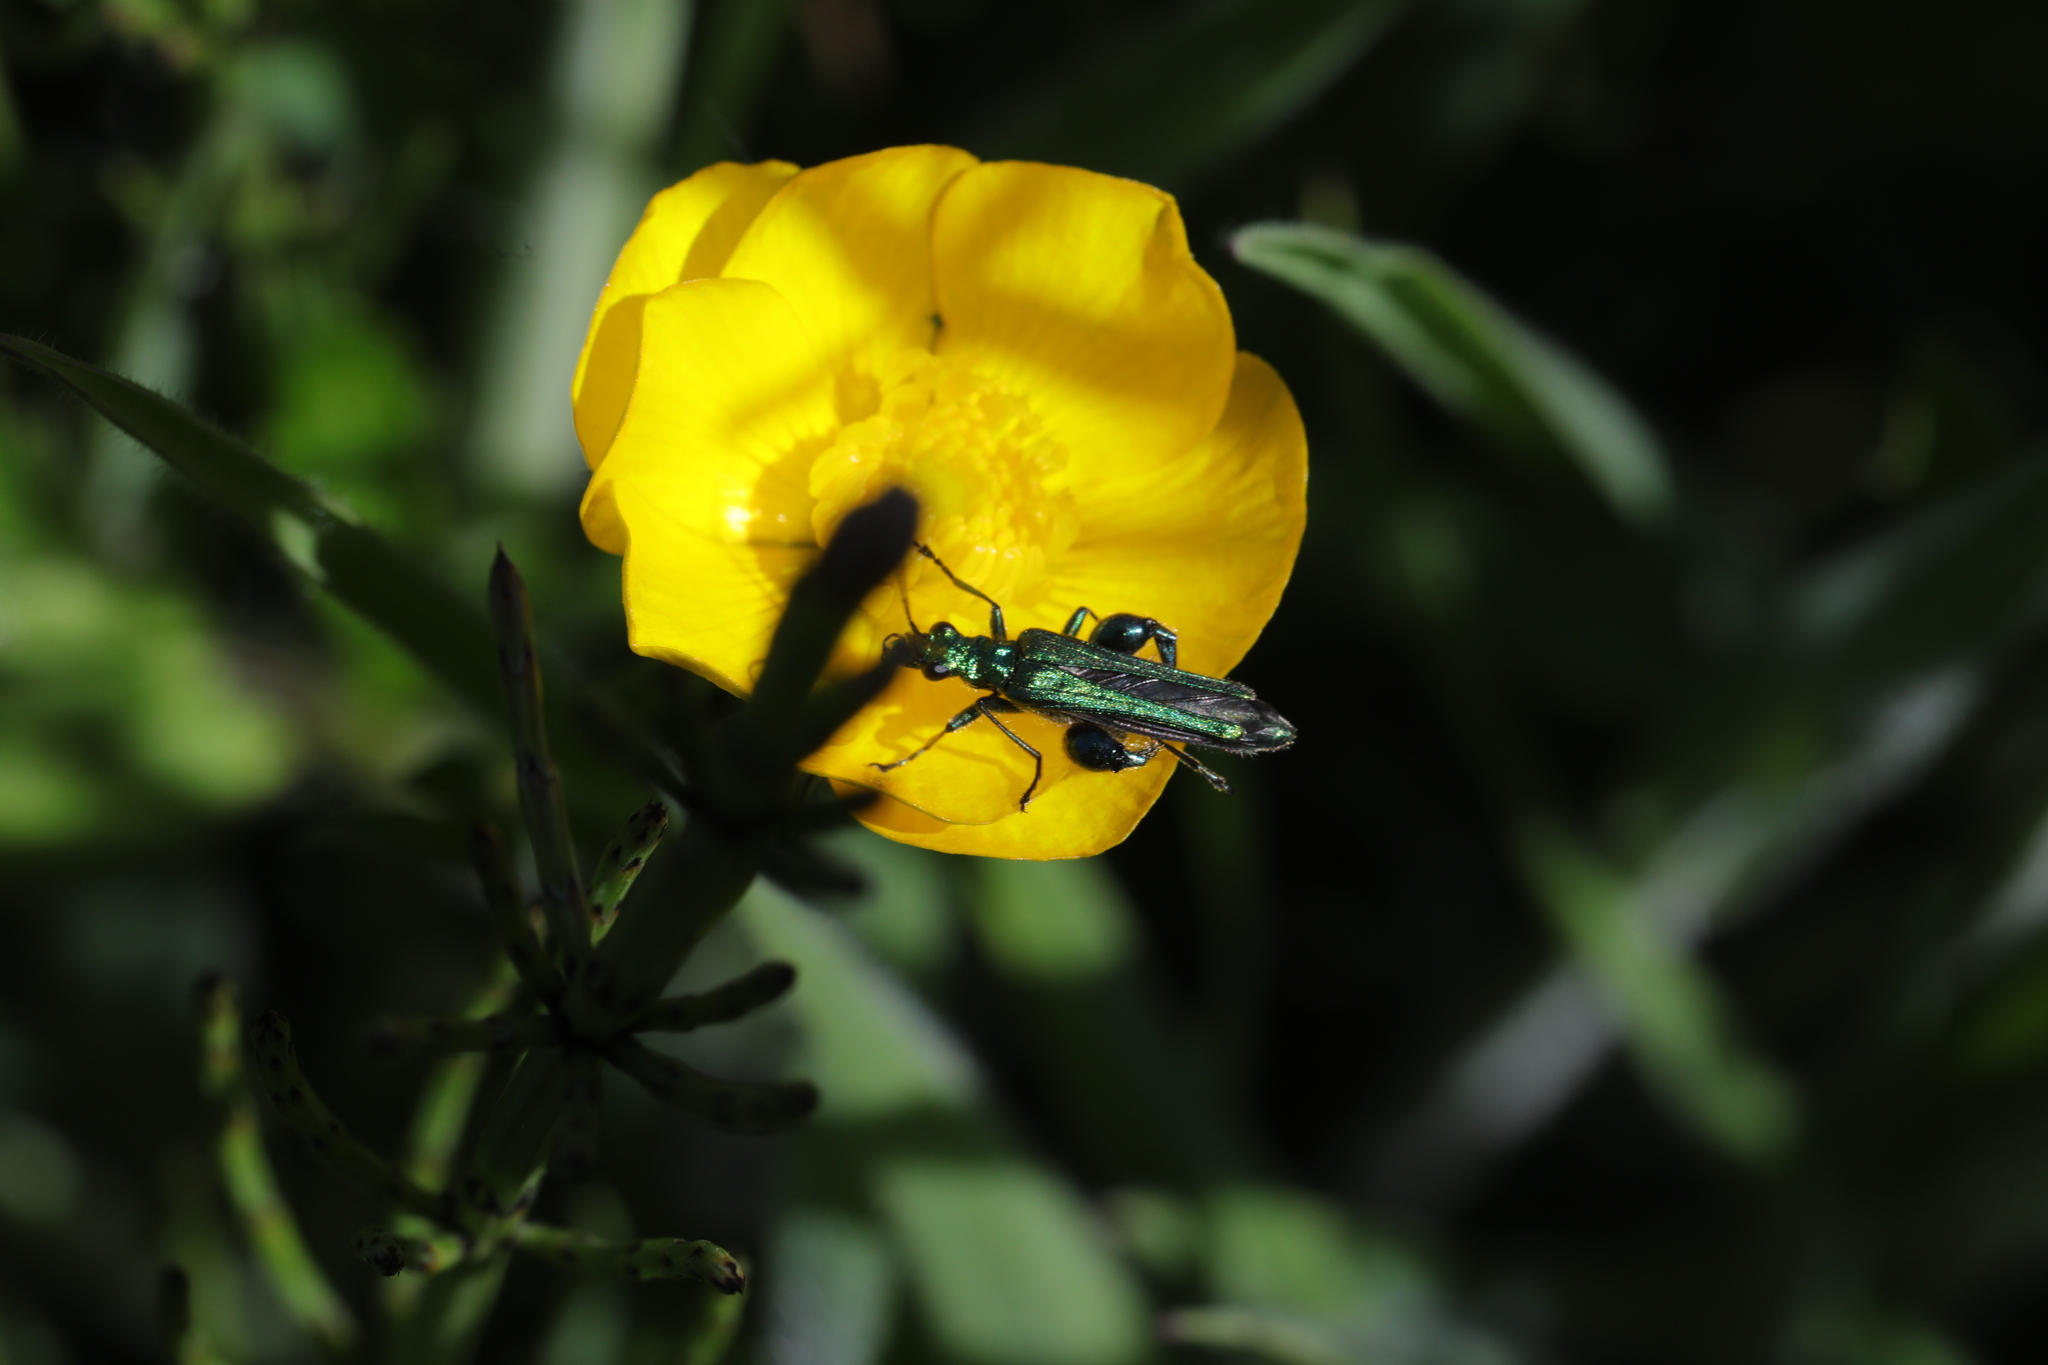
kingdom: Animalia
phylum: Arthropoda
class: Insecta
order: Coleoptera
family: Oedemeridae
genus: Oedemera
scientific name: Oedemera nobilis
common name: Swollen-thighed beetle
